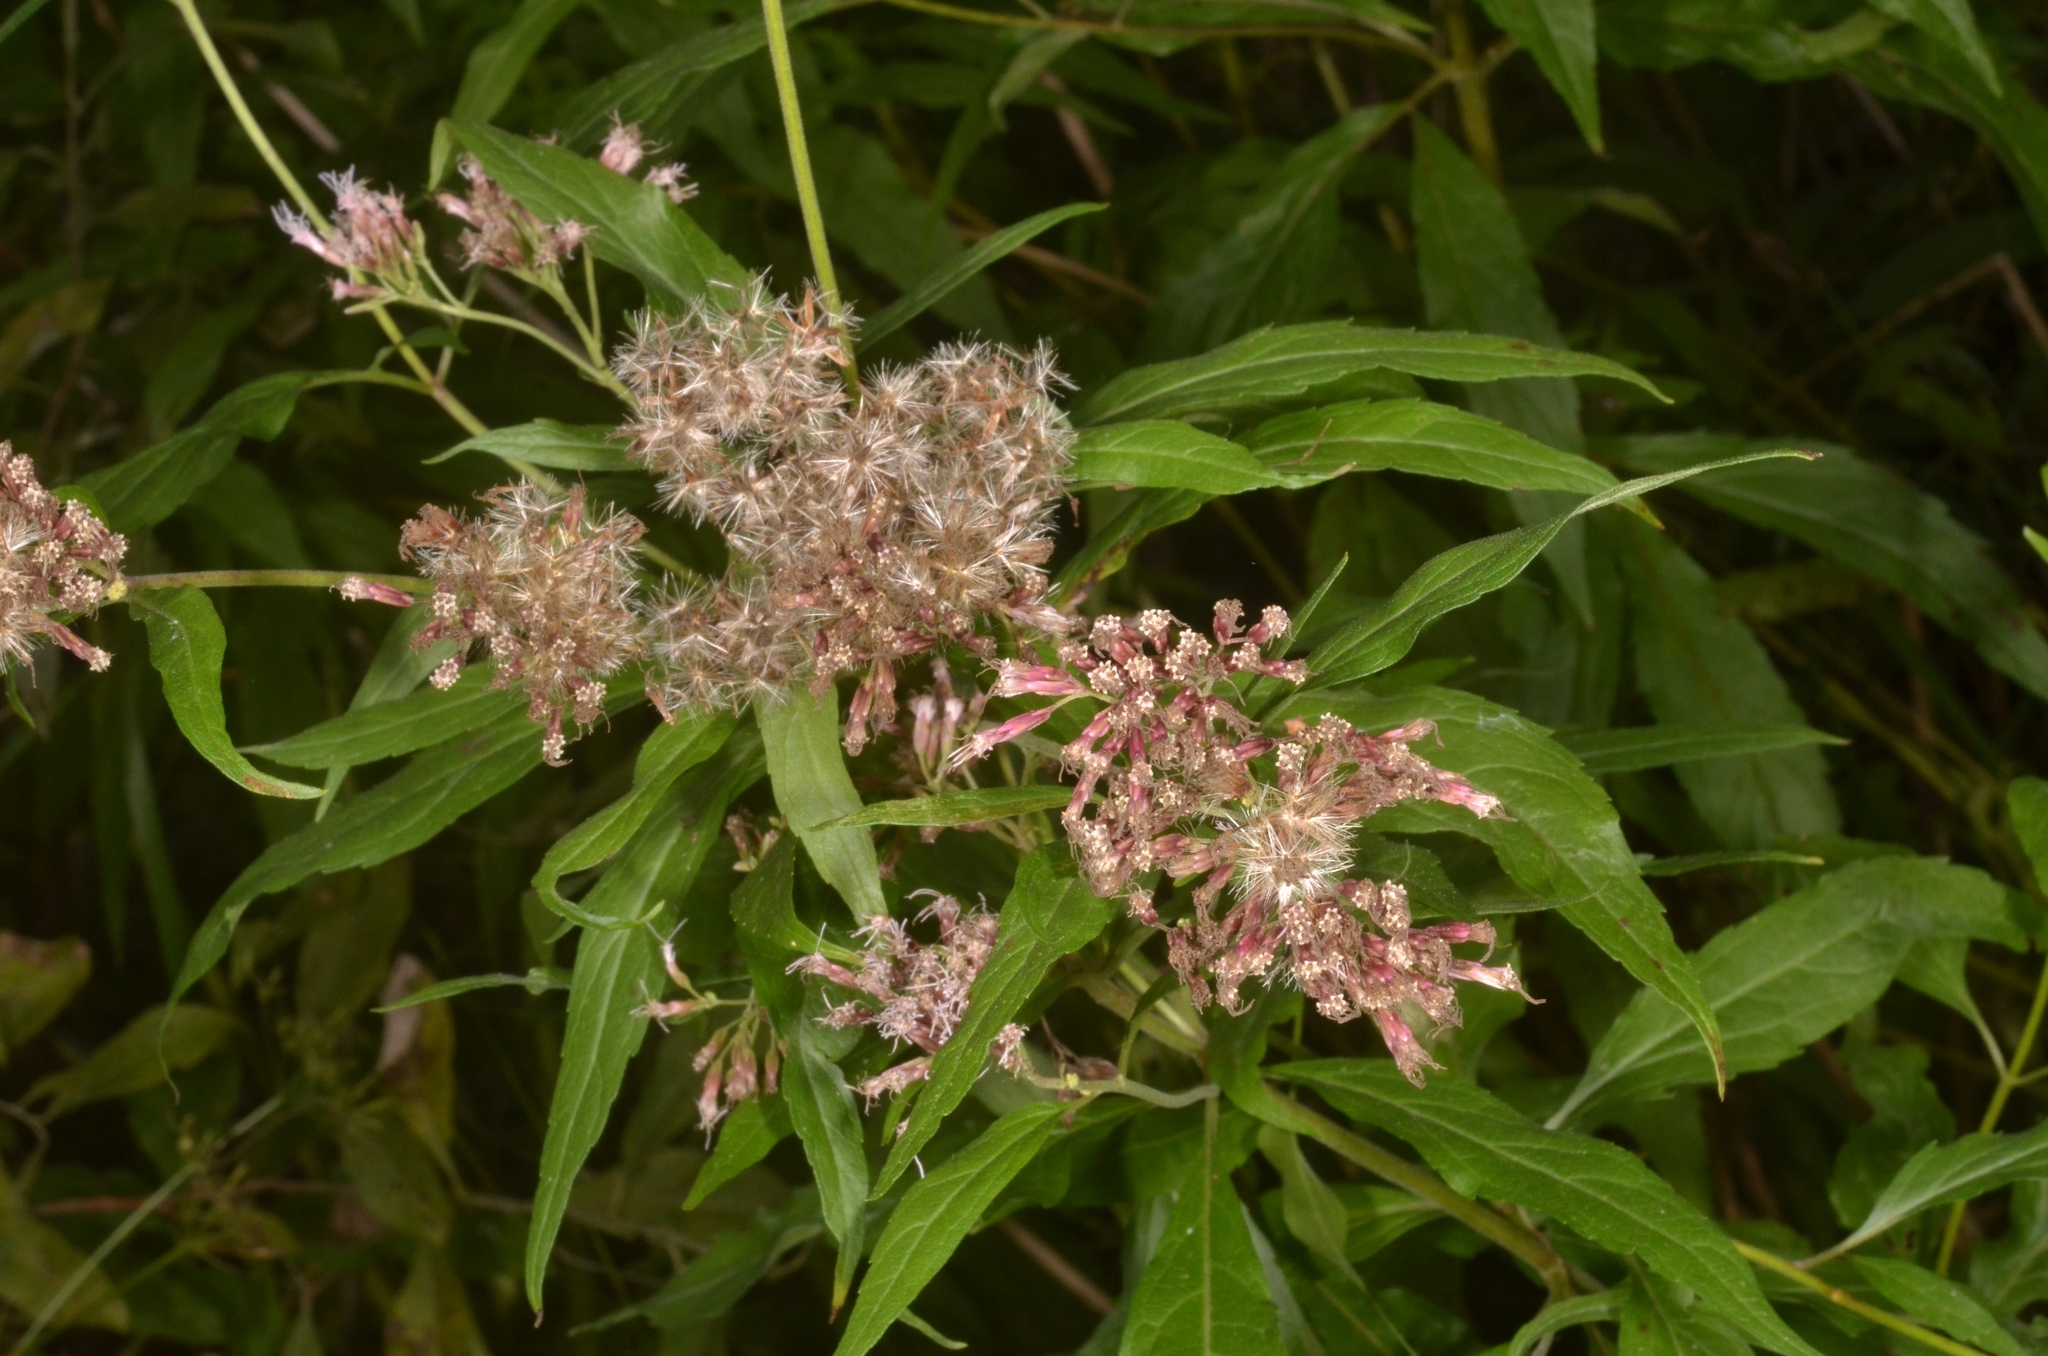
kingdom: Plantae
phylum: Tracheophyta
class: Magnoliopsida
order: Asterales
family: Asteraceae
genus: Eupatorium
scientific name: Eupatorium cannabinum
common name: Hemp-agrimony
